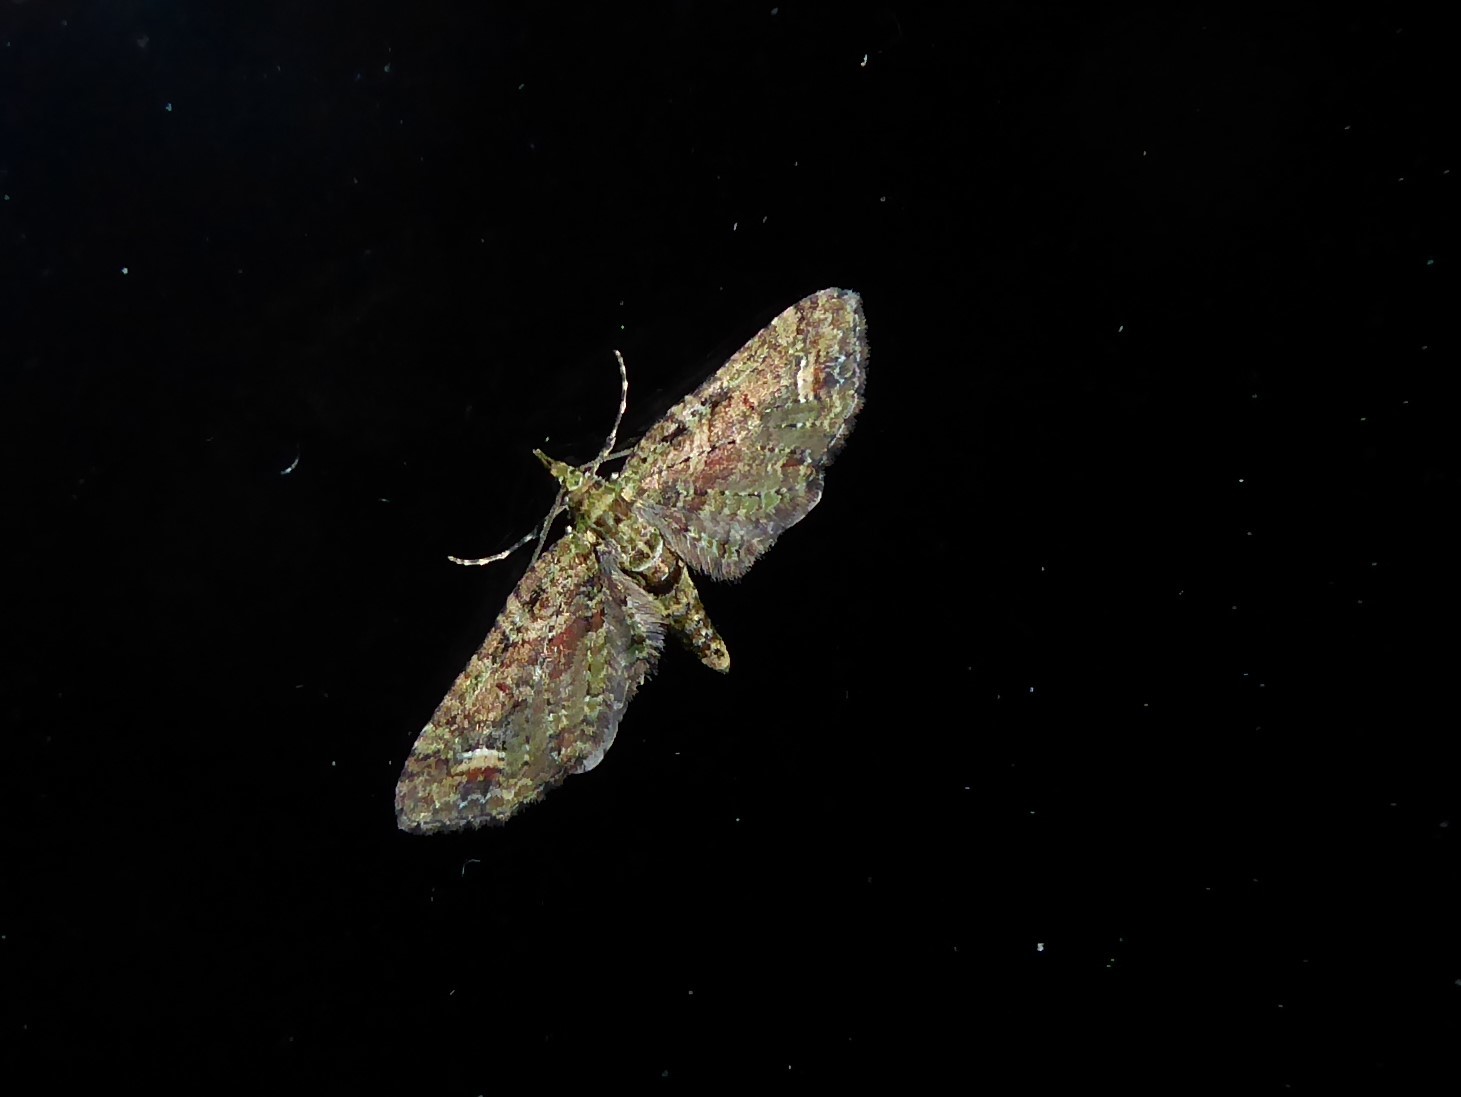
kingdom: Animalia
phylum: Arthropoda
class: Insecta
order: Lepidoptera
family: Geometridae
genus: Idaea
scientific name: Idaea mutanda
